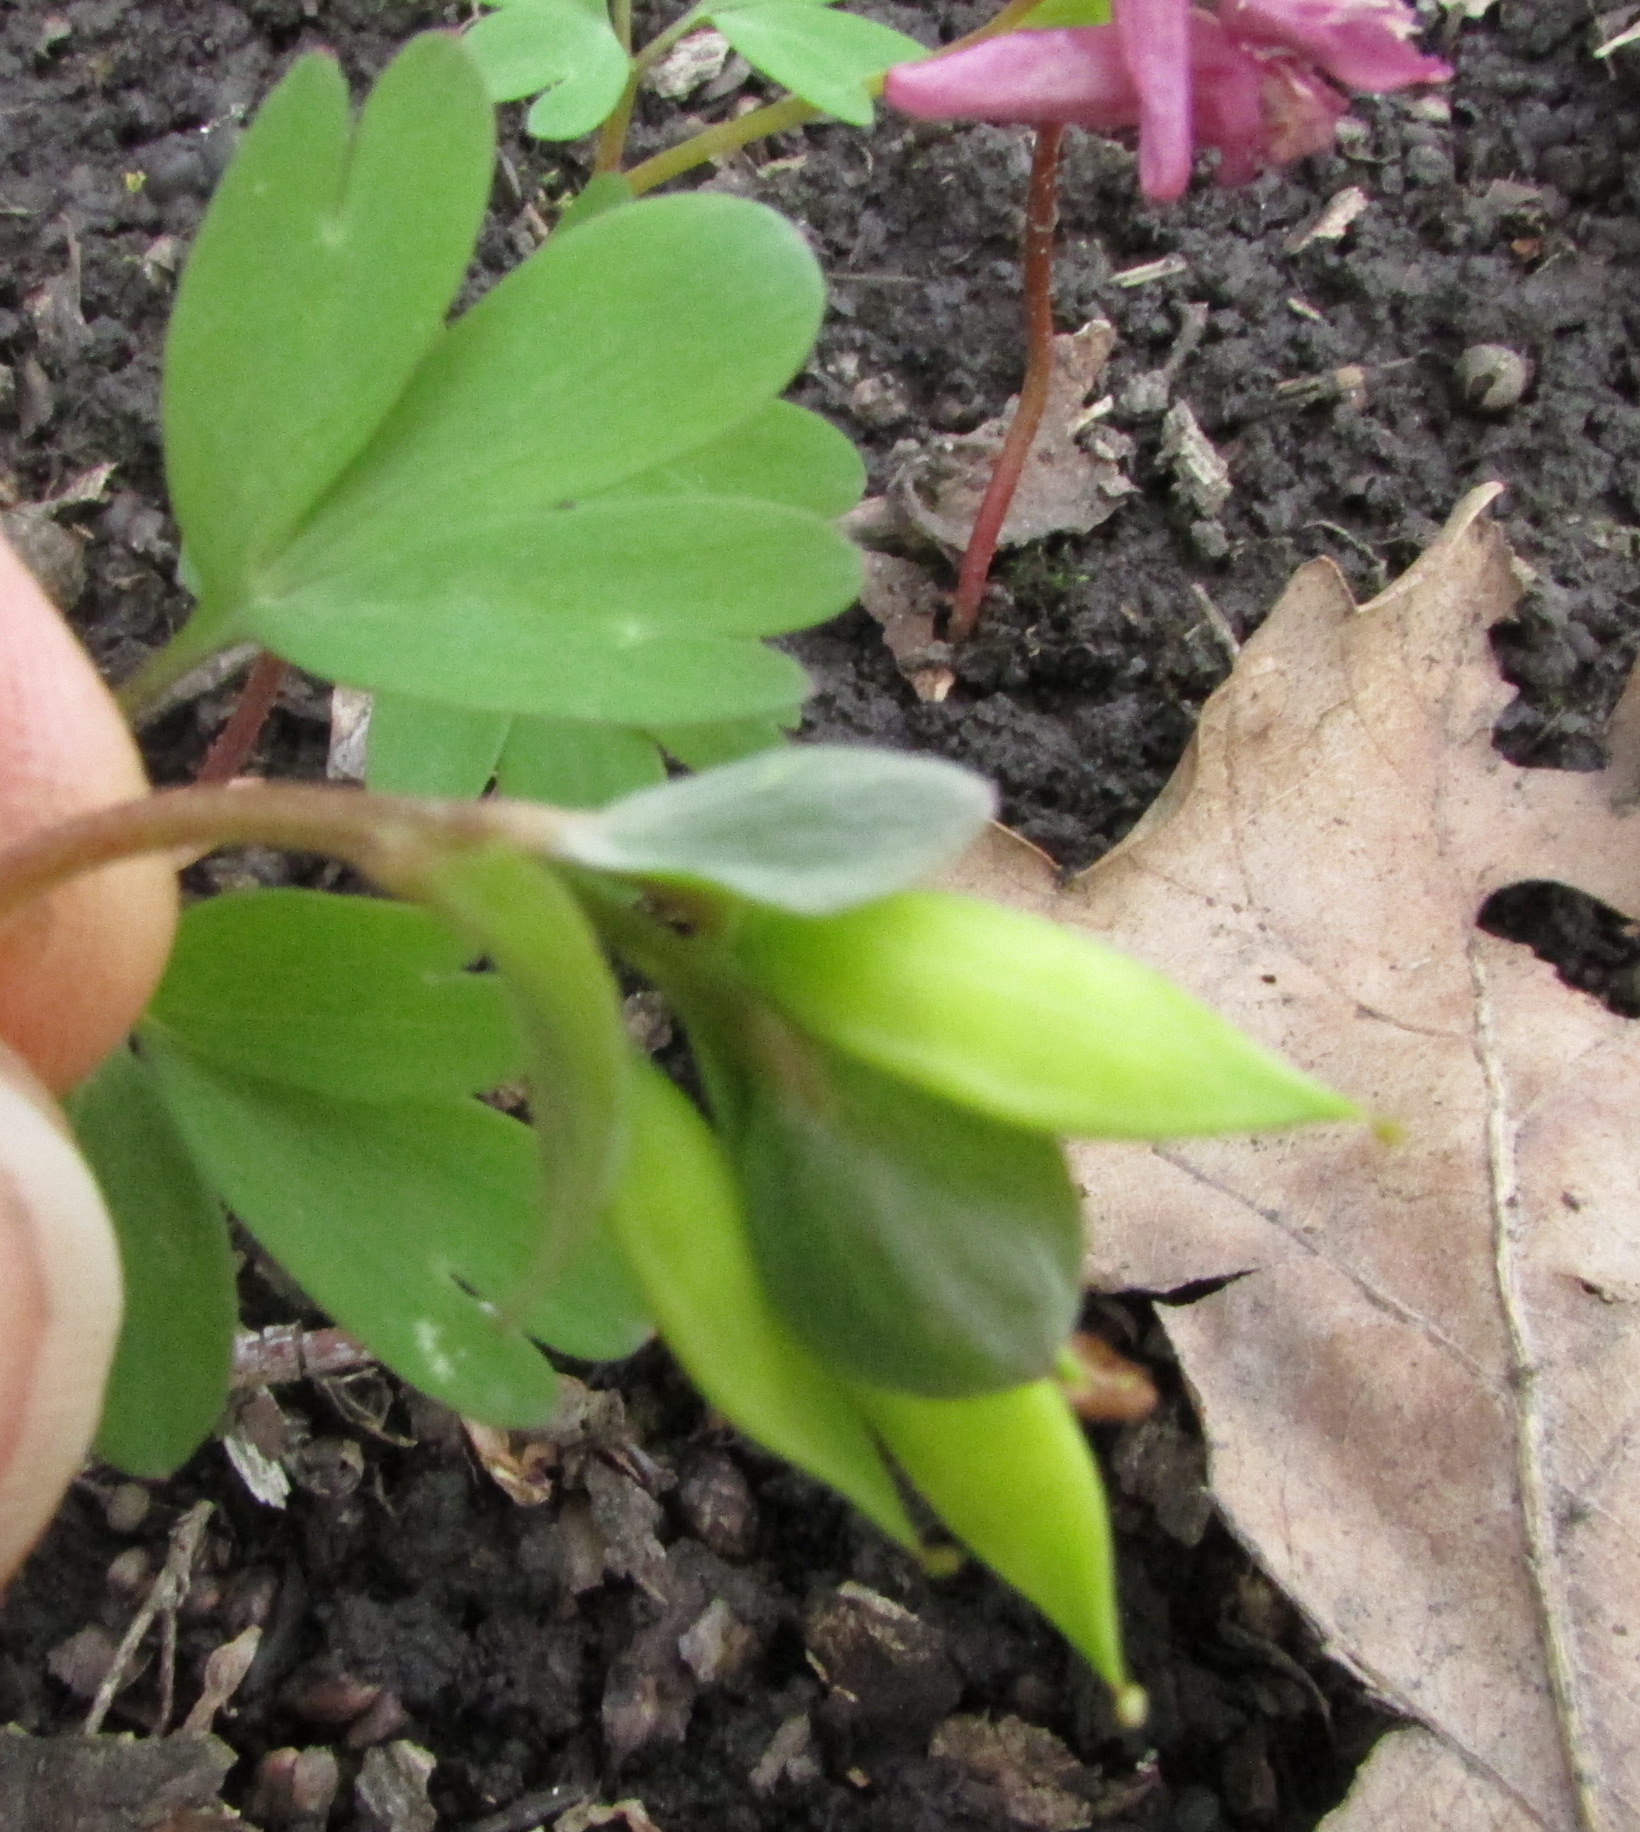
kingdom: Plantae
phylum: Tracheophyta
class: Magnoliopsida
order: Ranunculales
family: Papaveraceae
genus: Corydalis
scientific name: Corydalis intermedia
